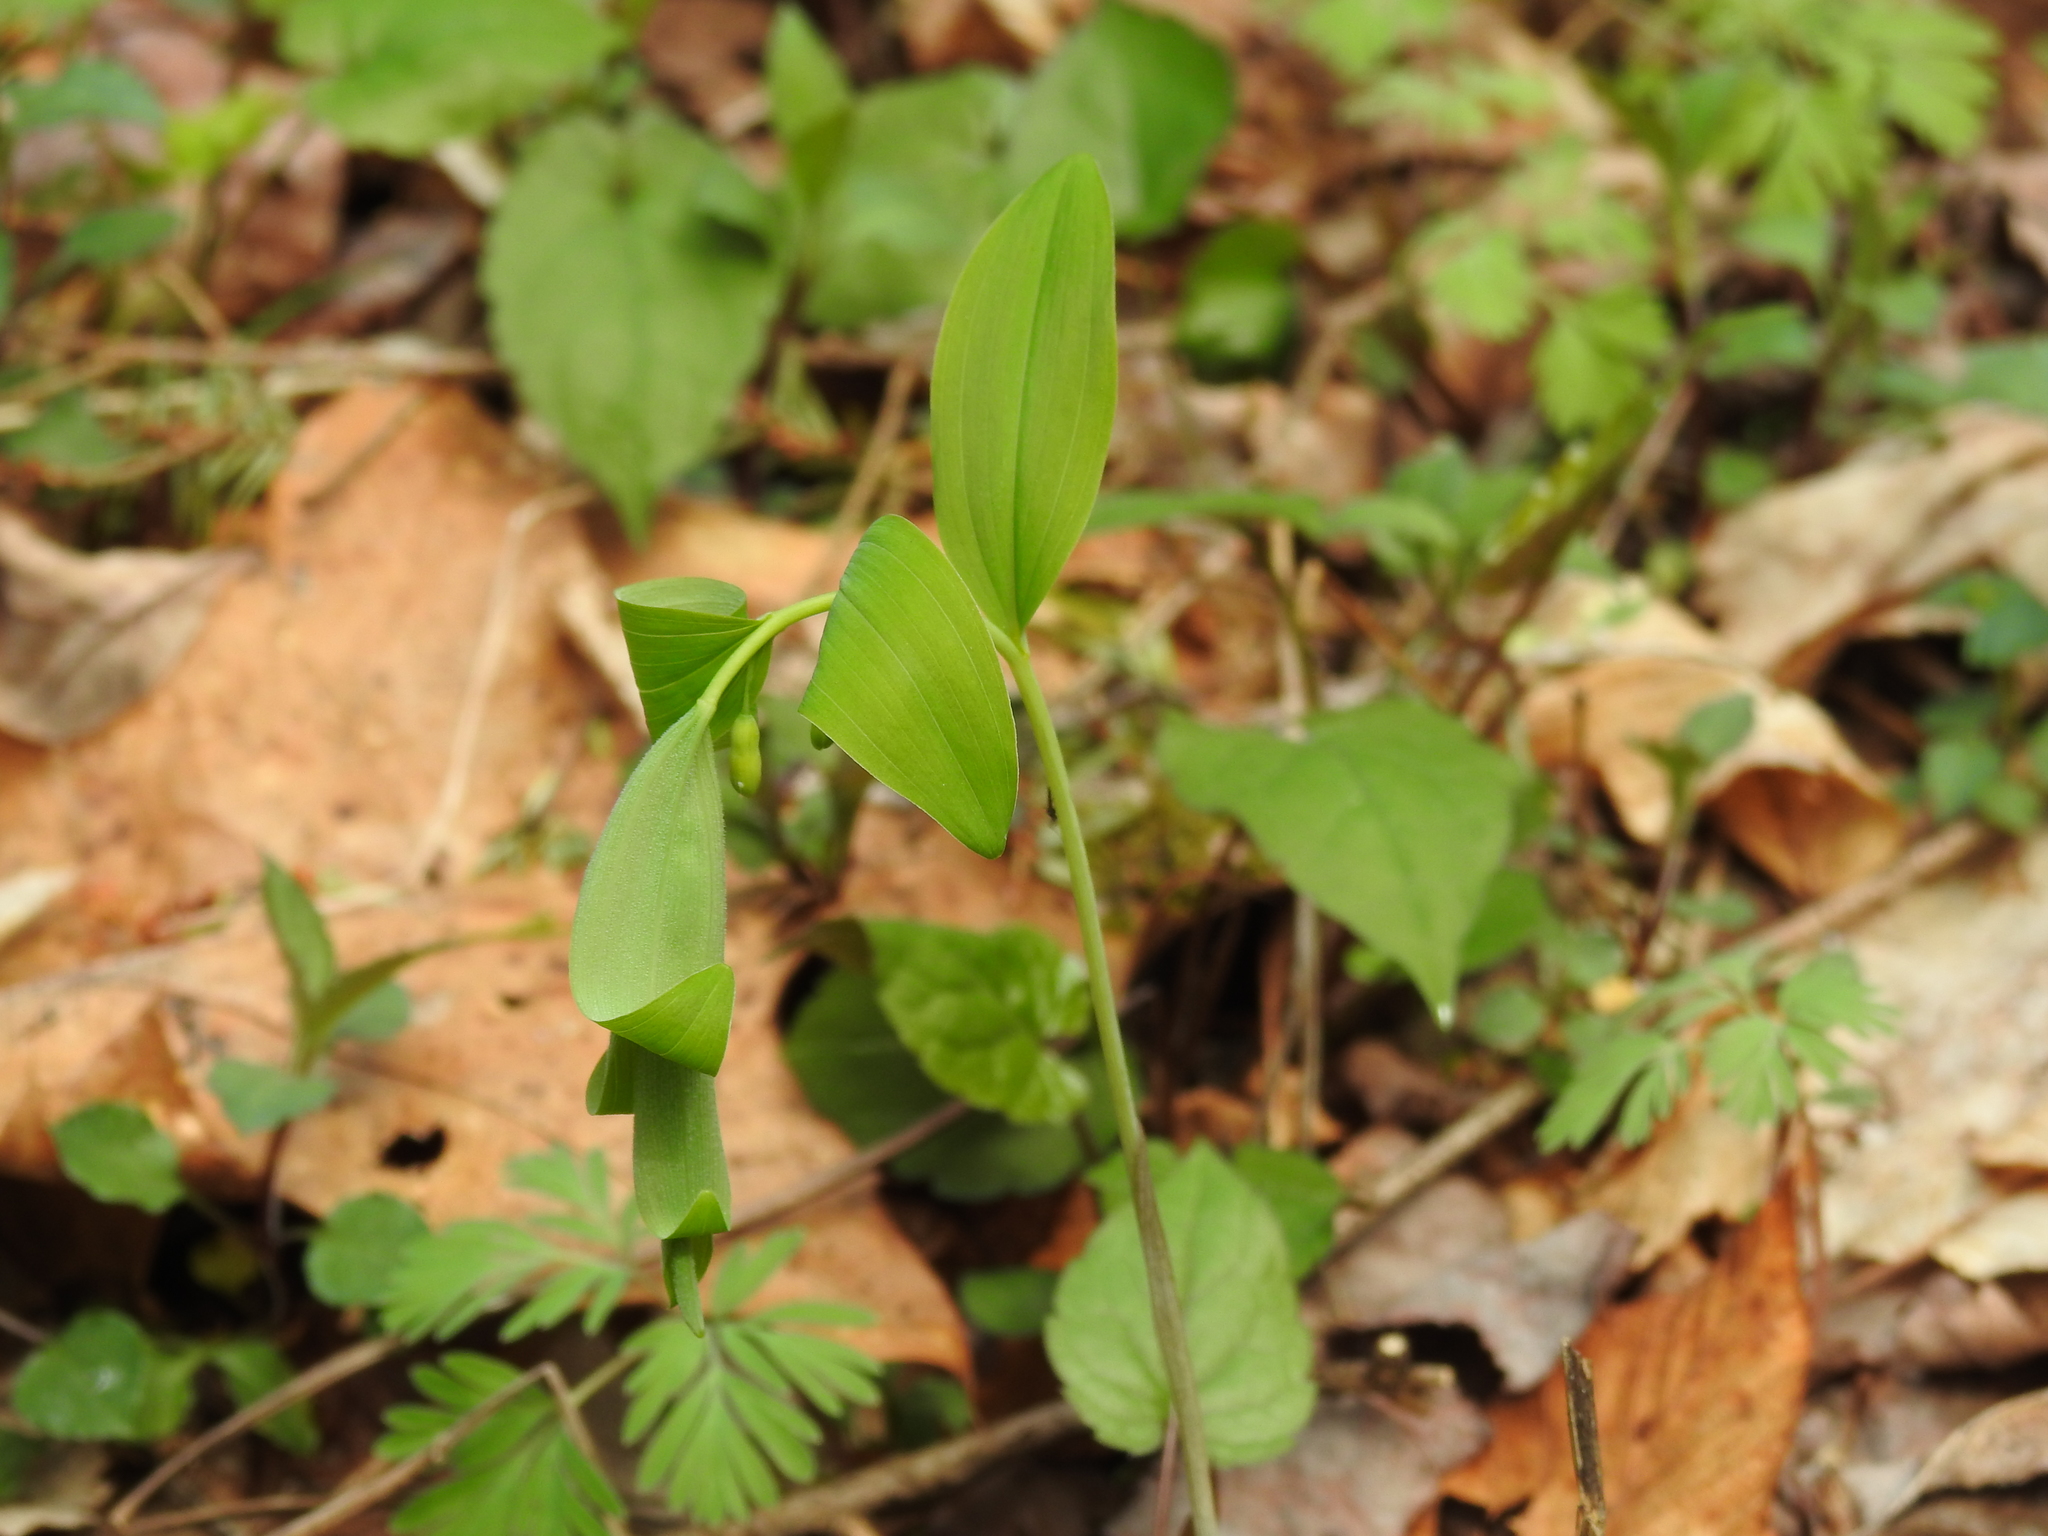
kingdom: Plantae
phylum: Tracheophyta
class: Liliopsida
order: Asparagales
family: Asparagaceae
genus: Polygonatum
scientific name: Polygonatum pubescens
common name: Downy solomon's seal
